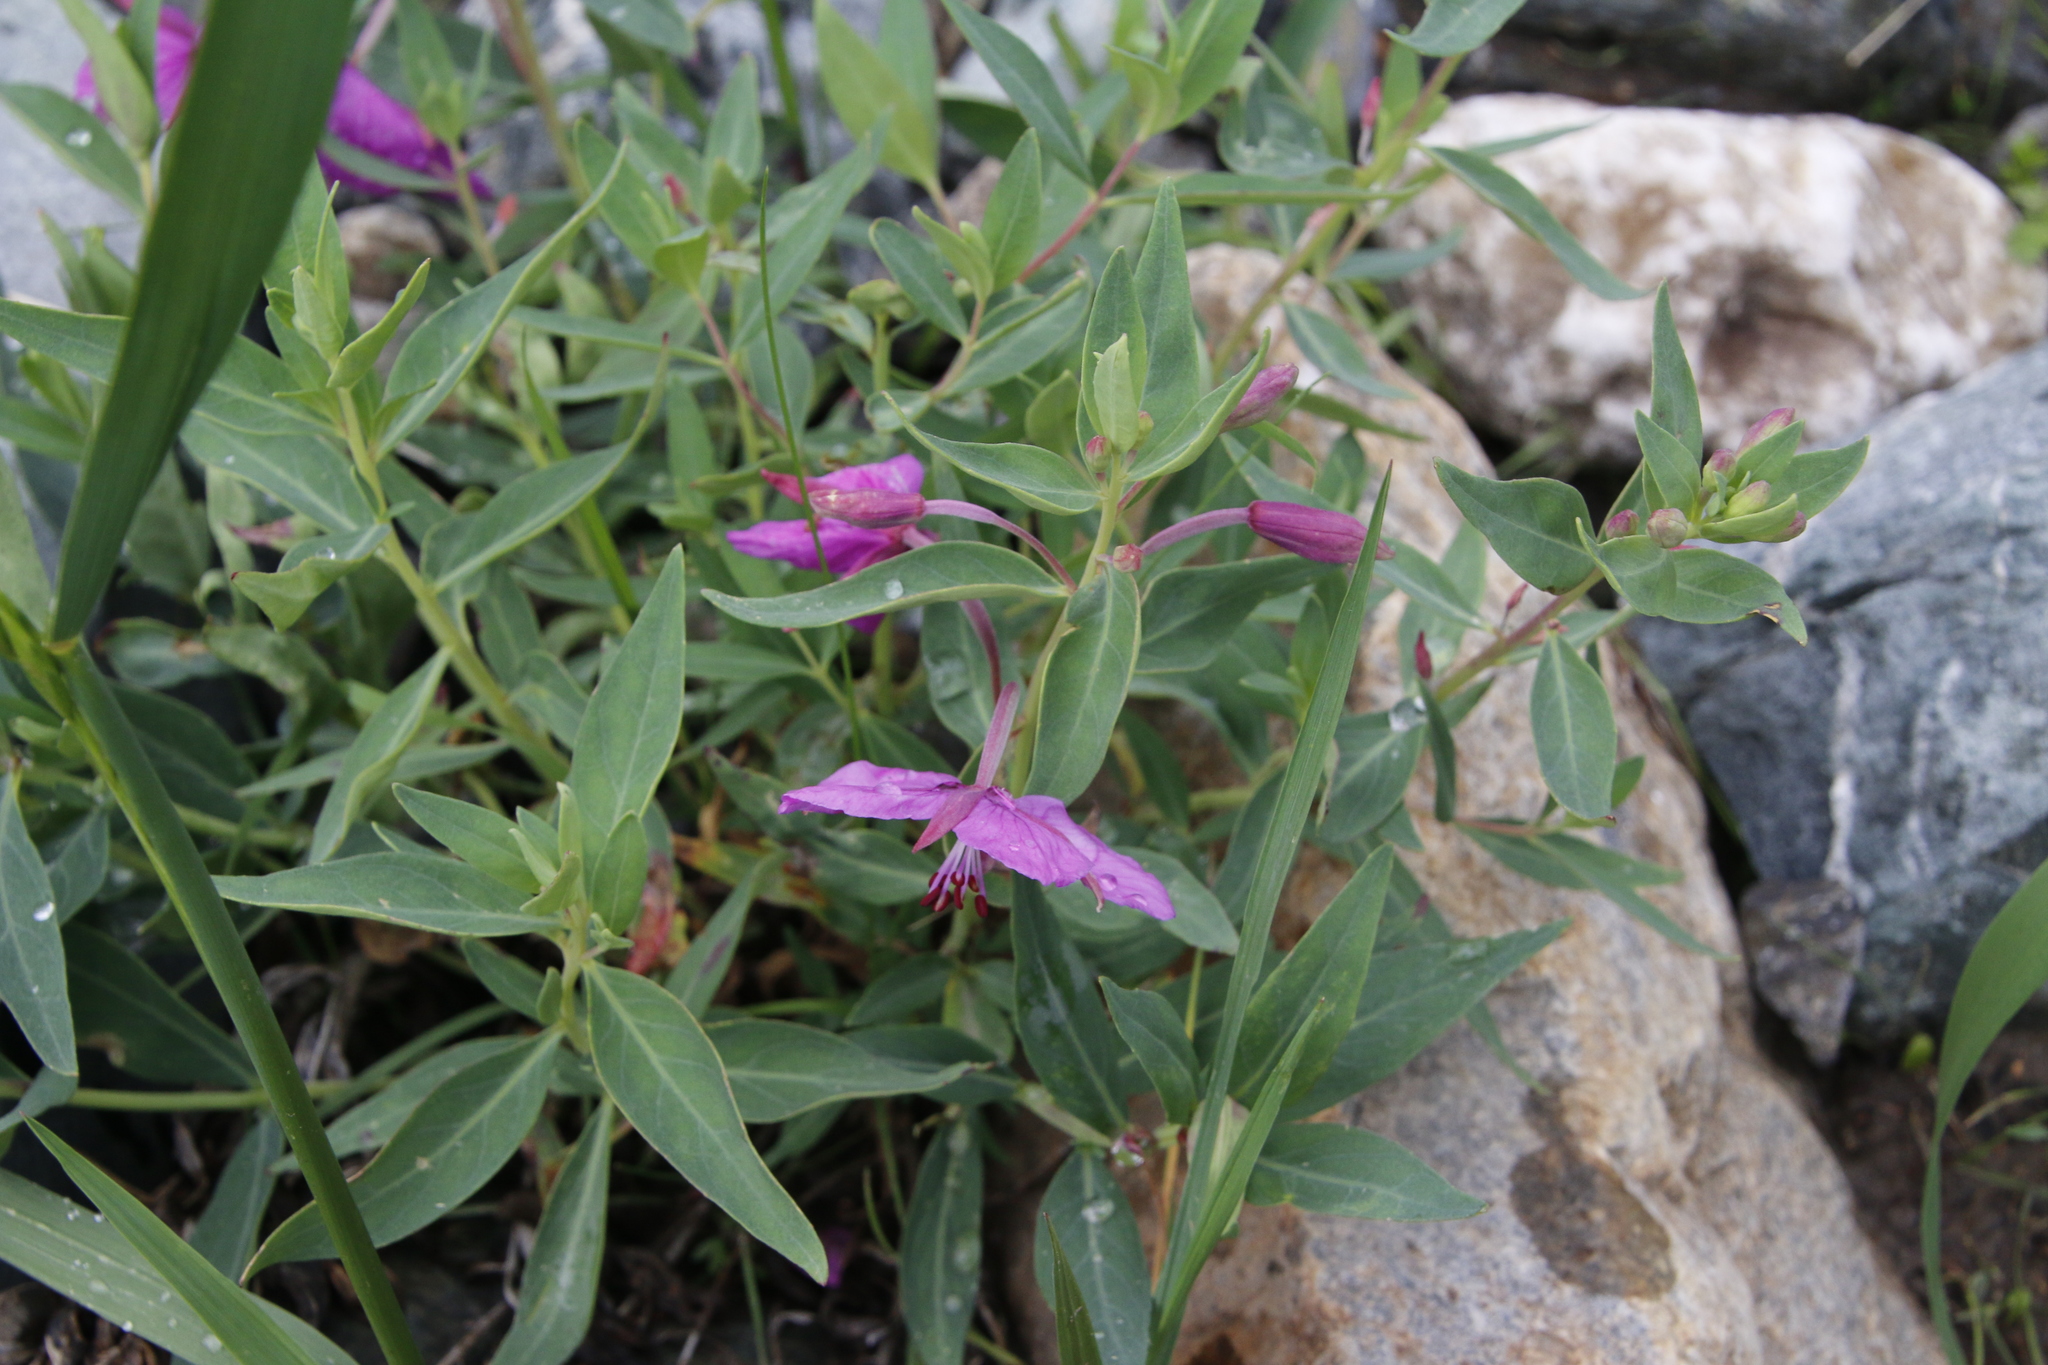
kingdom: Plantae
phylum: Tracheophyta
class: Magnoliopsida
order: Myrtales
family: Onagraceae
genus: Chamaenerion
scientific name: Chamaenerion latifolium
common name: Dwarf fireweed
